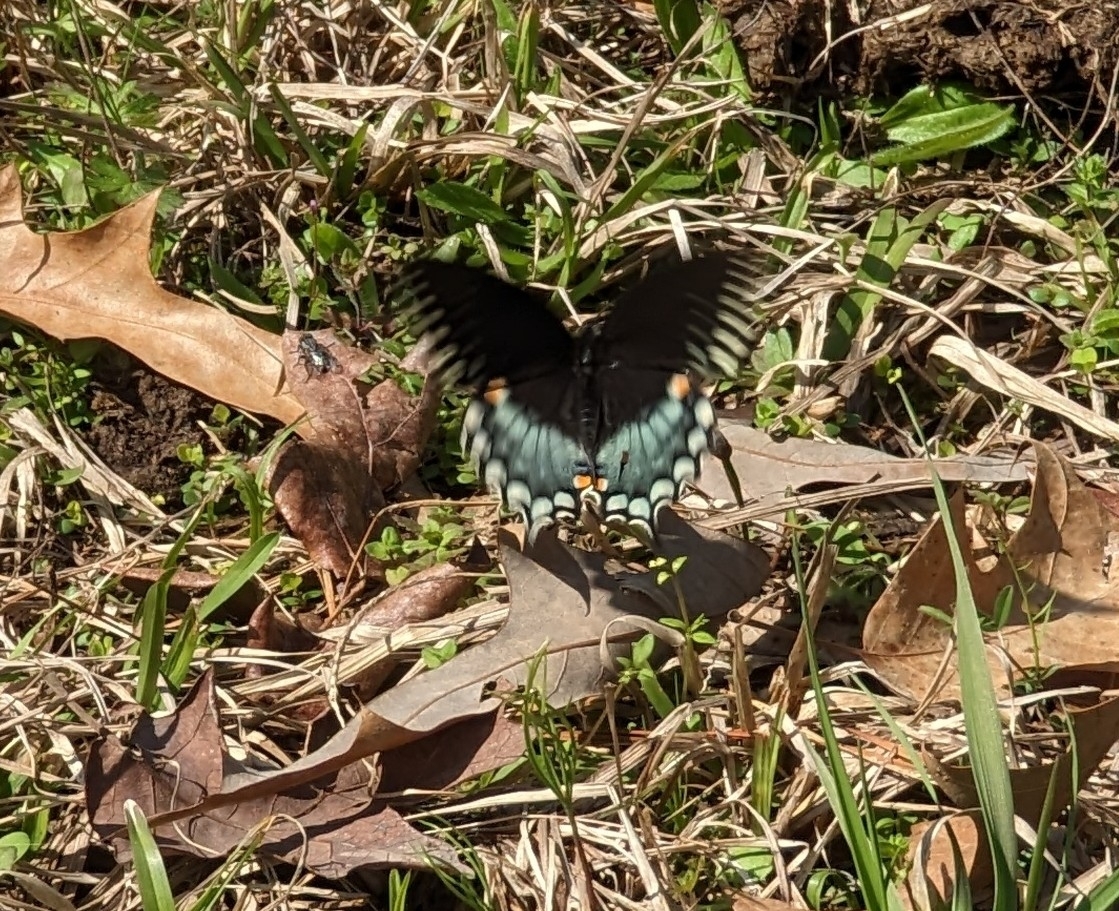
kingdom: Animalia
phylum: Arthropoda
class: Insecta
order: Lepidoptera
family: Papilionidae
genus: Papilio
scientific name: Papilio troilus
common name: Spicebush swallowtail
